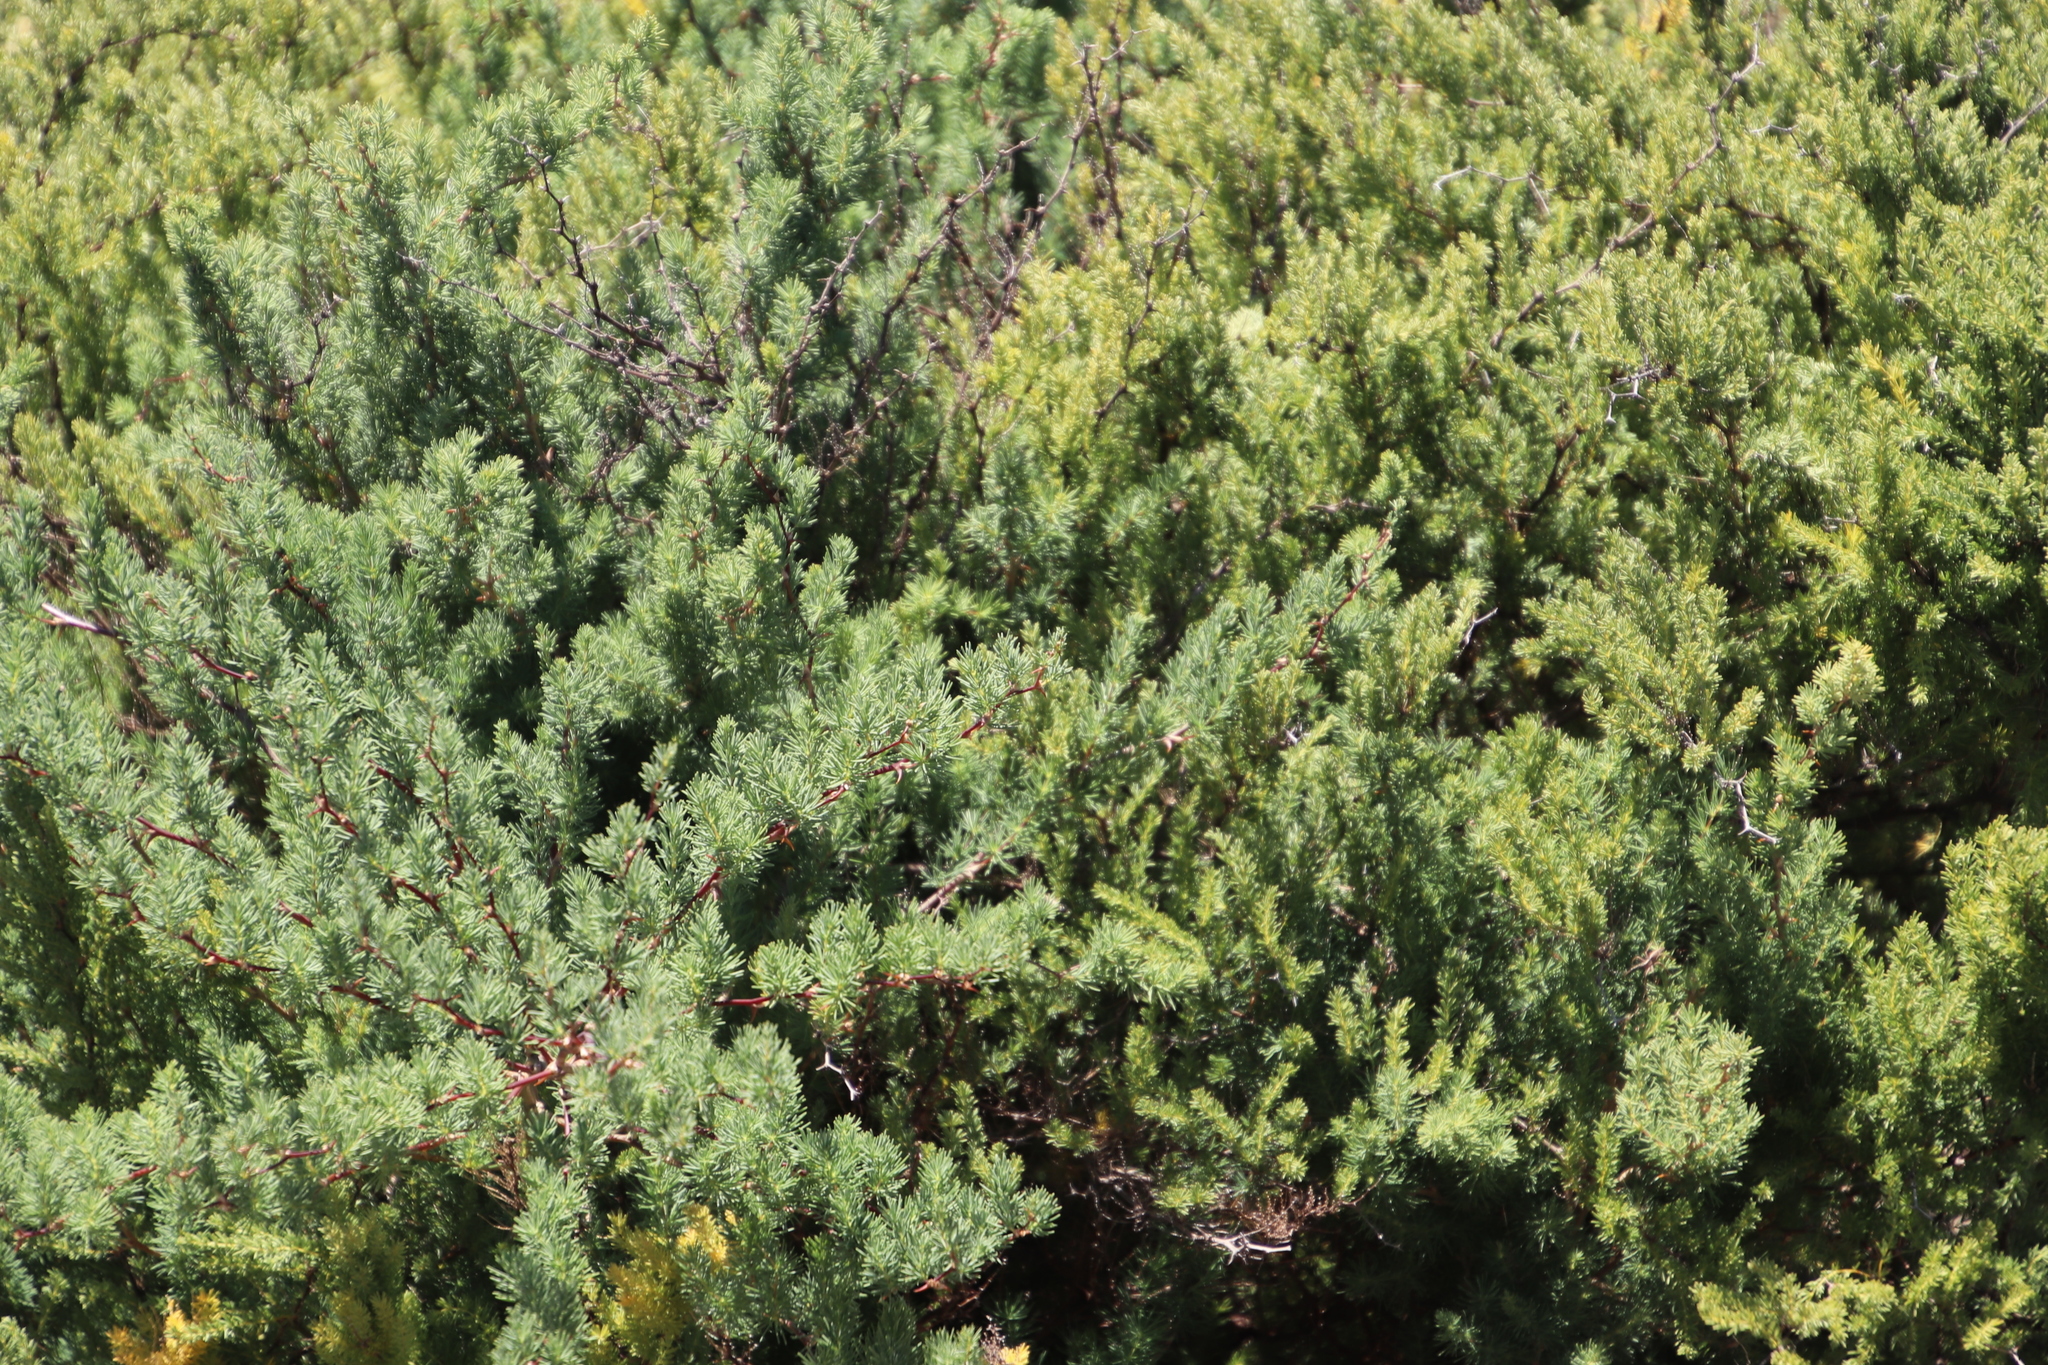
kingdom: Plantae
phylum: Tracheophyta
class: Liliopsida
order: Asparagales
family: Asparagaceae
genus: Asparagus
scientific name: Asparagus rubicundus
